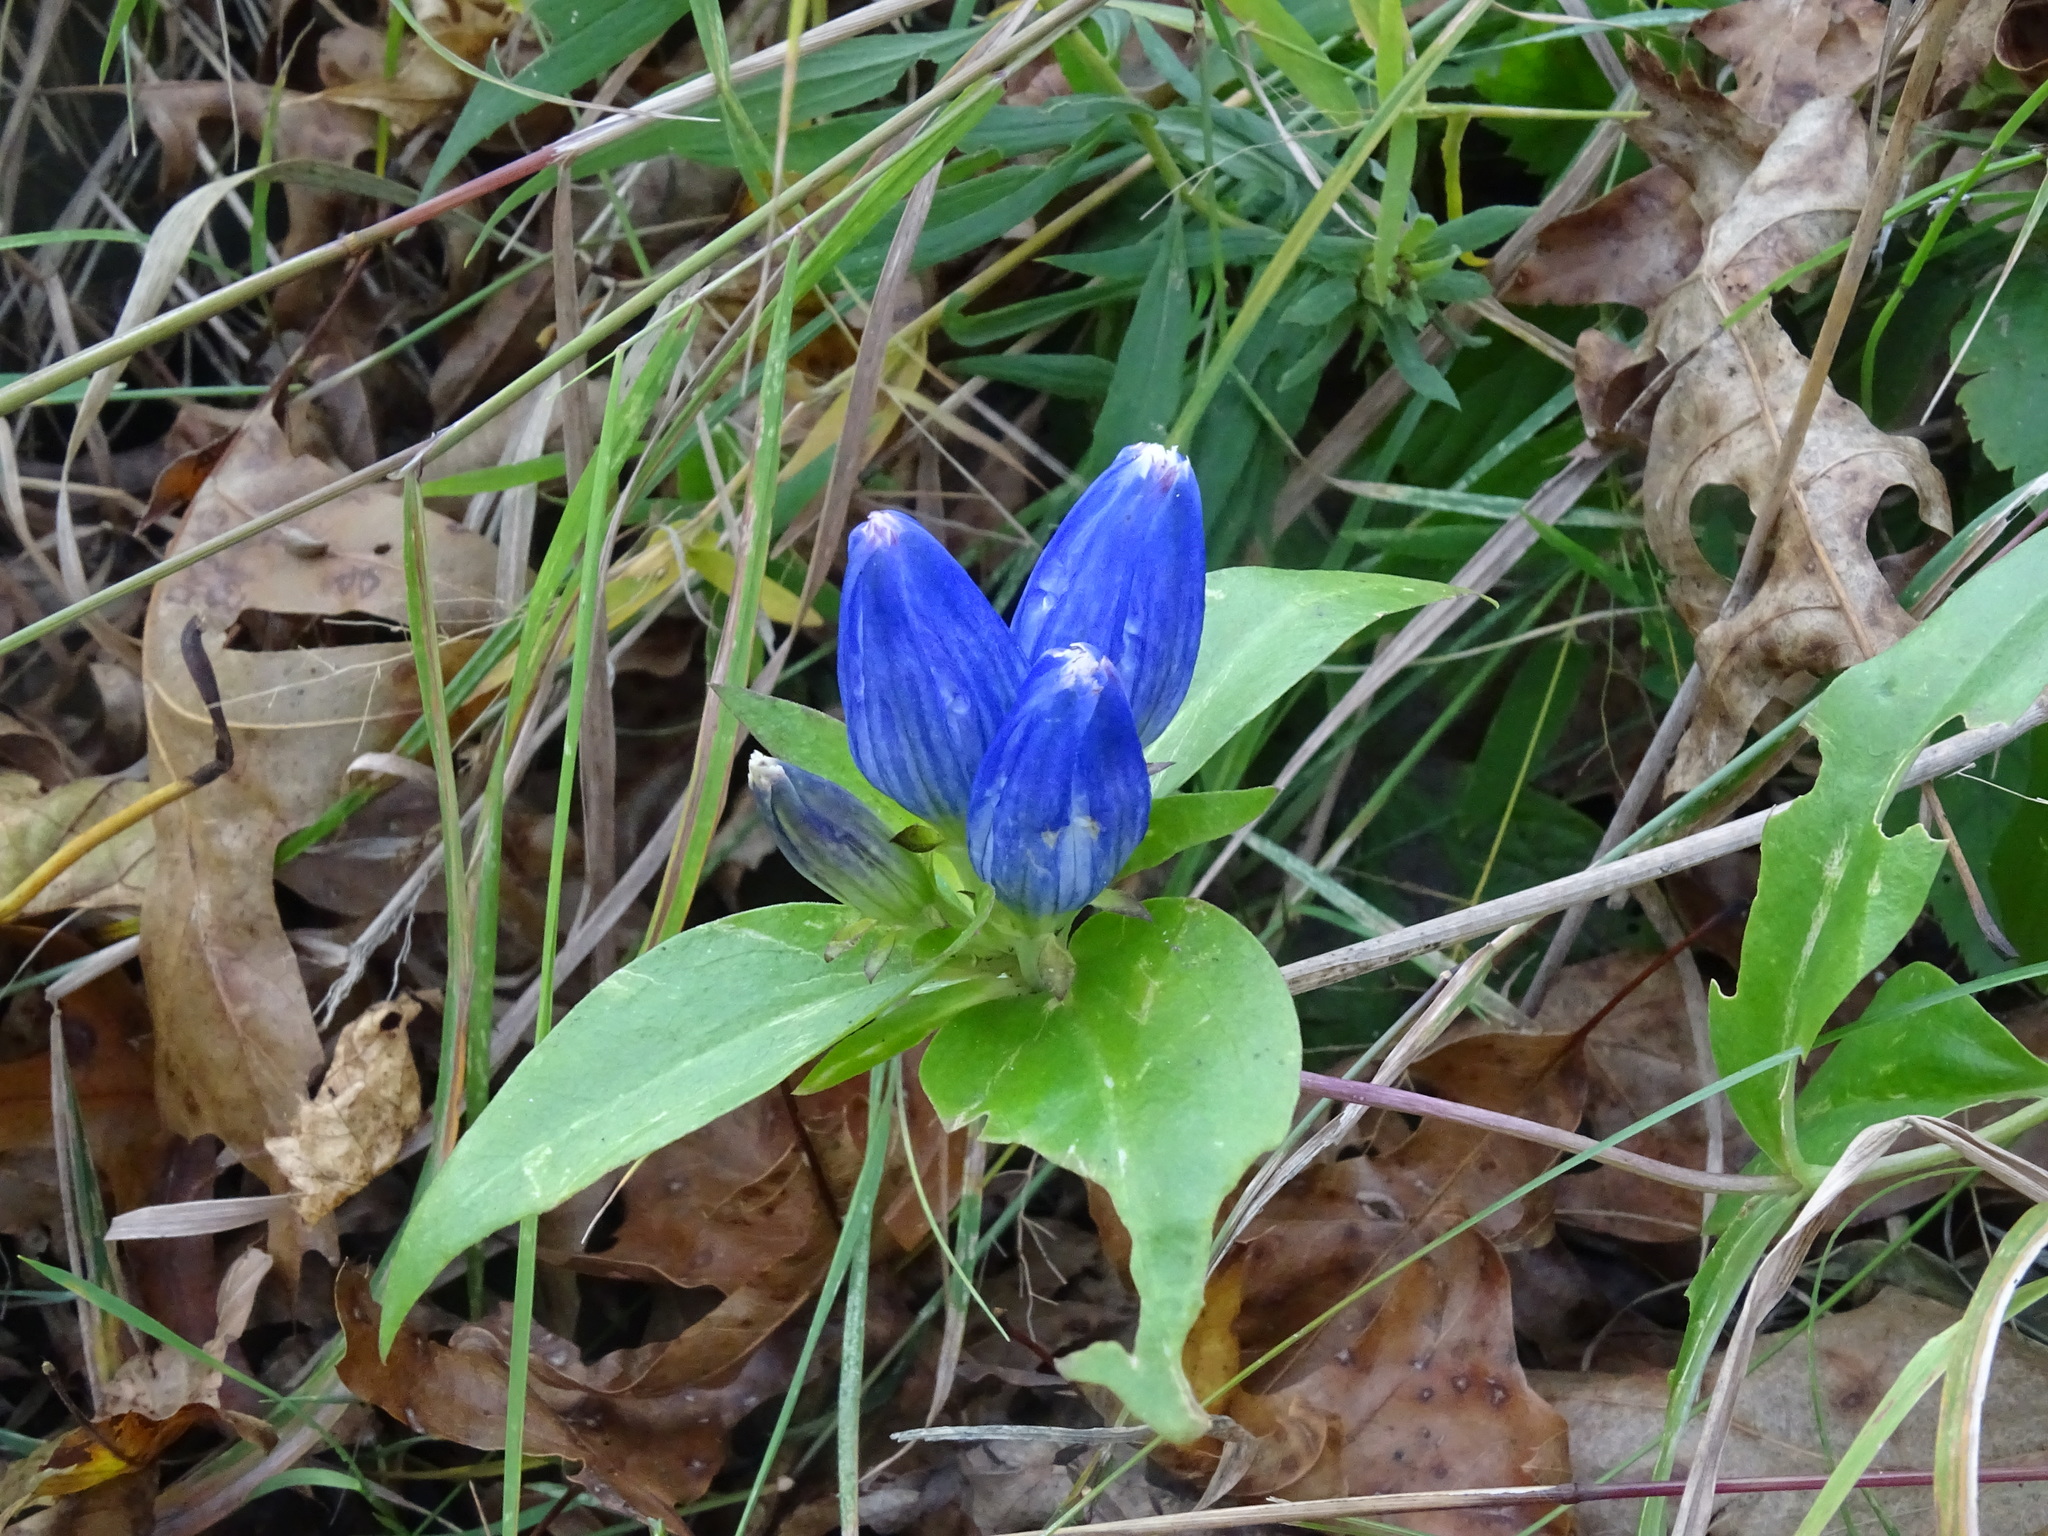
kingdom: Plantae
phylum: Tracheophyta
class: Magnoliopsida
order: Gentianales
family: Gentianaceae
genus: Gentiana
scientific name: Gentiana andrewsii
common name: Bottle gentian
